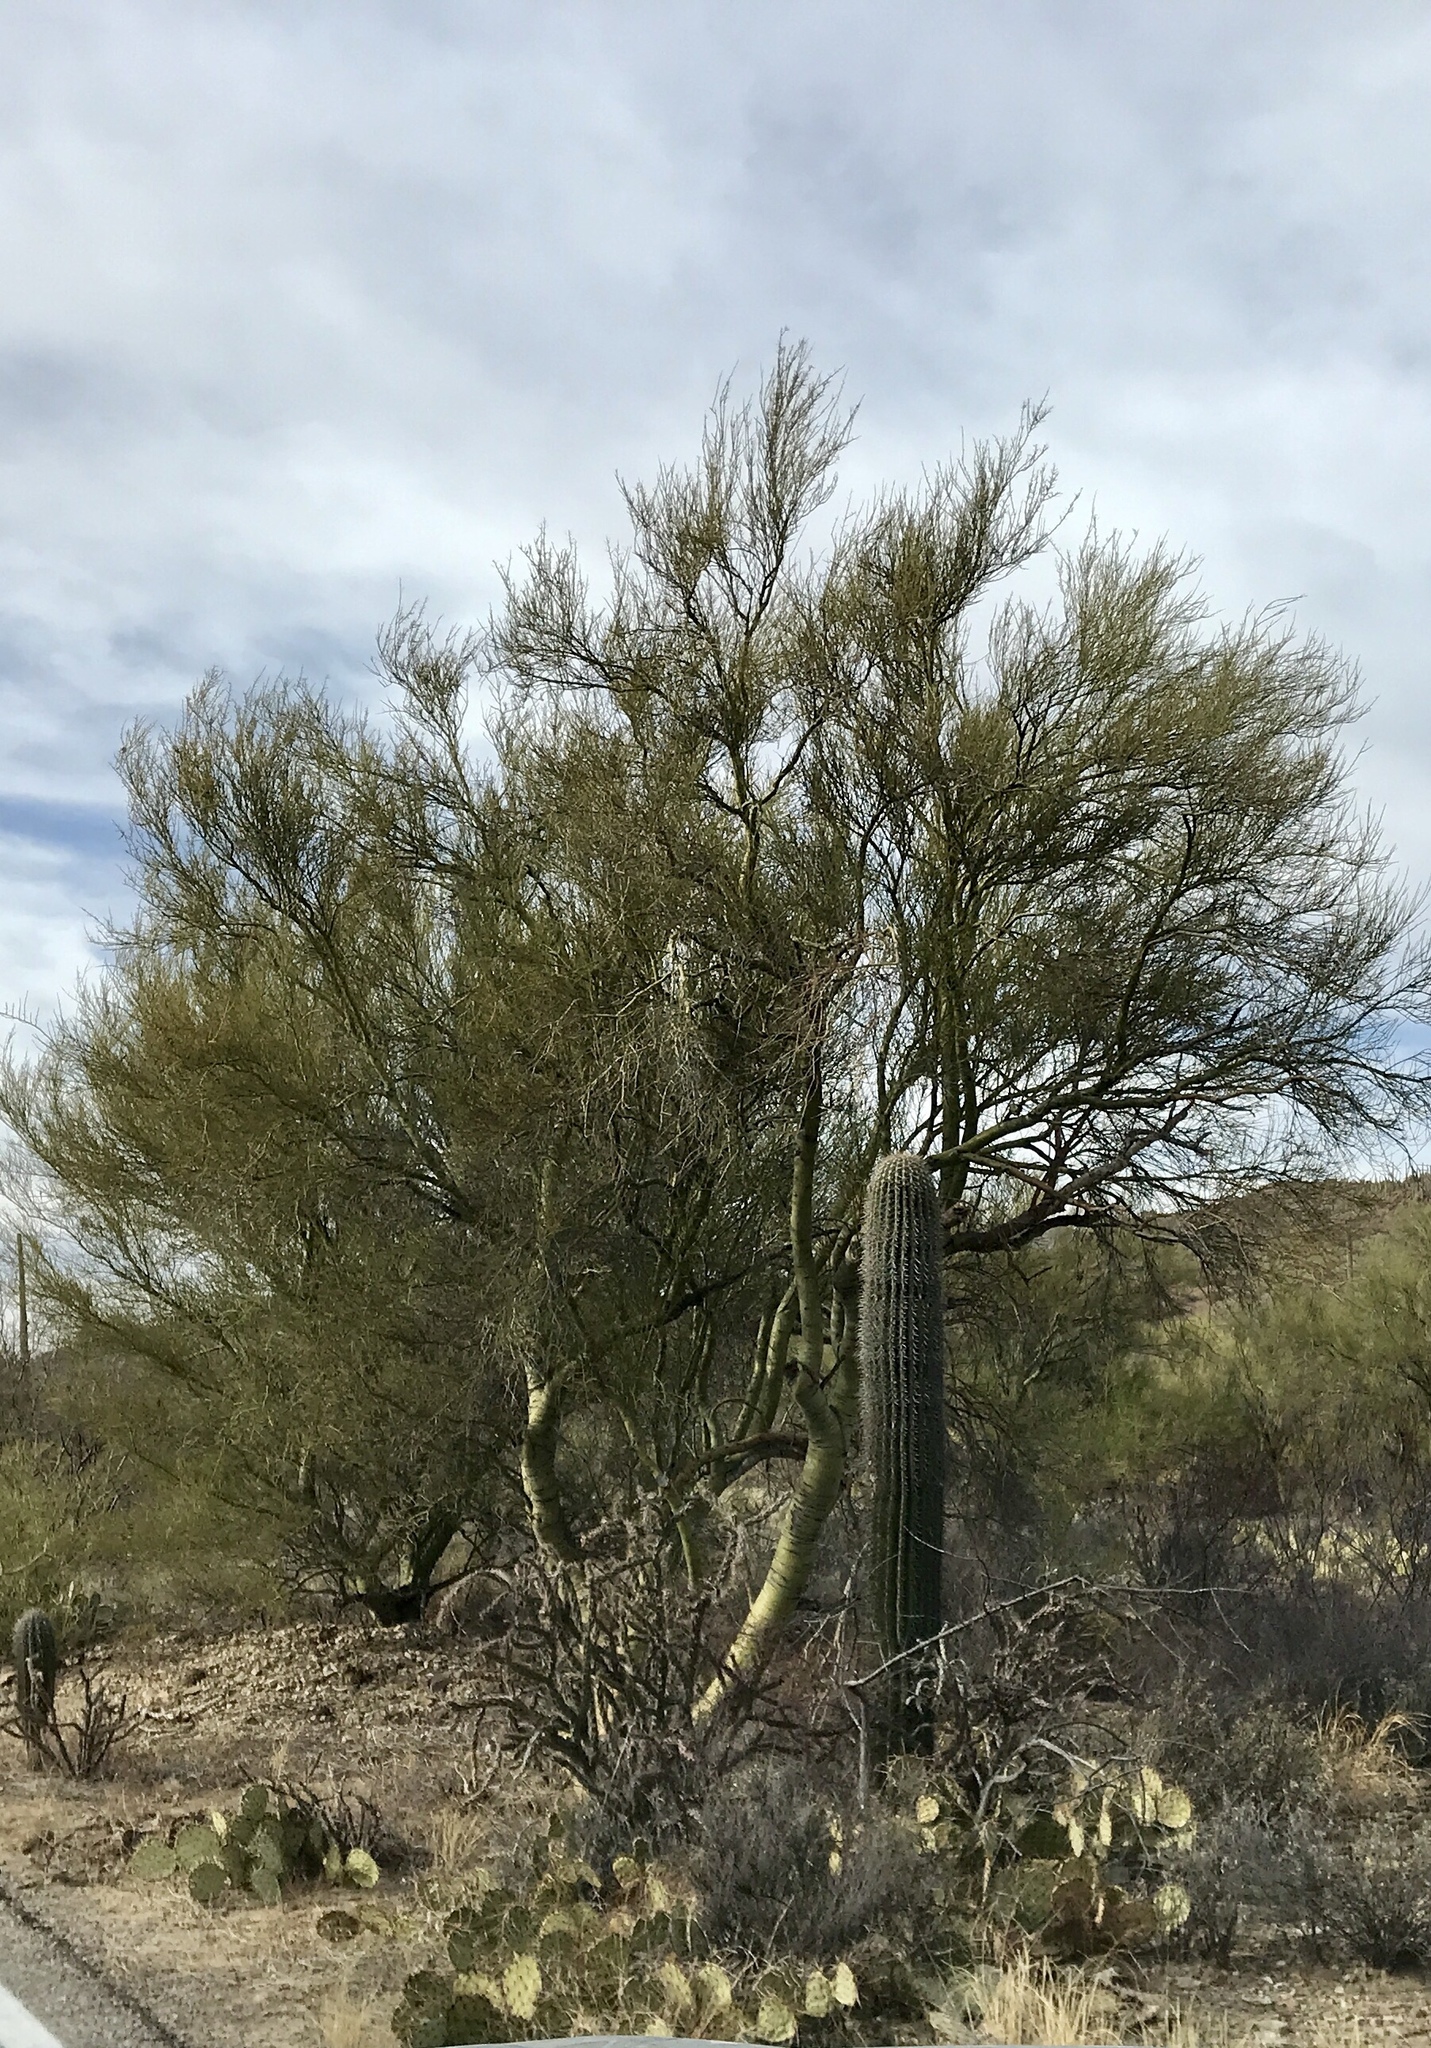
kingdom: Plantae
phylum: Tracheophyta
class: Magnoliopsida
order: Fabales
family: Fabaceae
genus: Parkinsonia
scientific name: Parkinsonia microphylla
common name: Yellow paloverde
